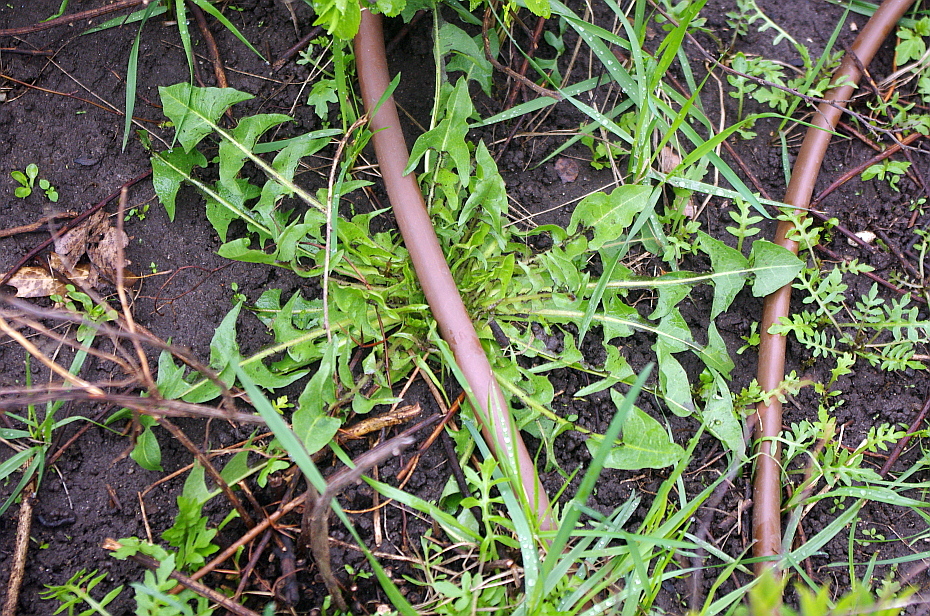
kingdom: Plantae
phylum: Tracheophyta
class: Magnoliopsida
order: Asterales
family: Asteraceae
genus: Taraxacum
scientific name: Taraxacum officinale
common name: Common dandelion
